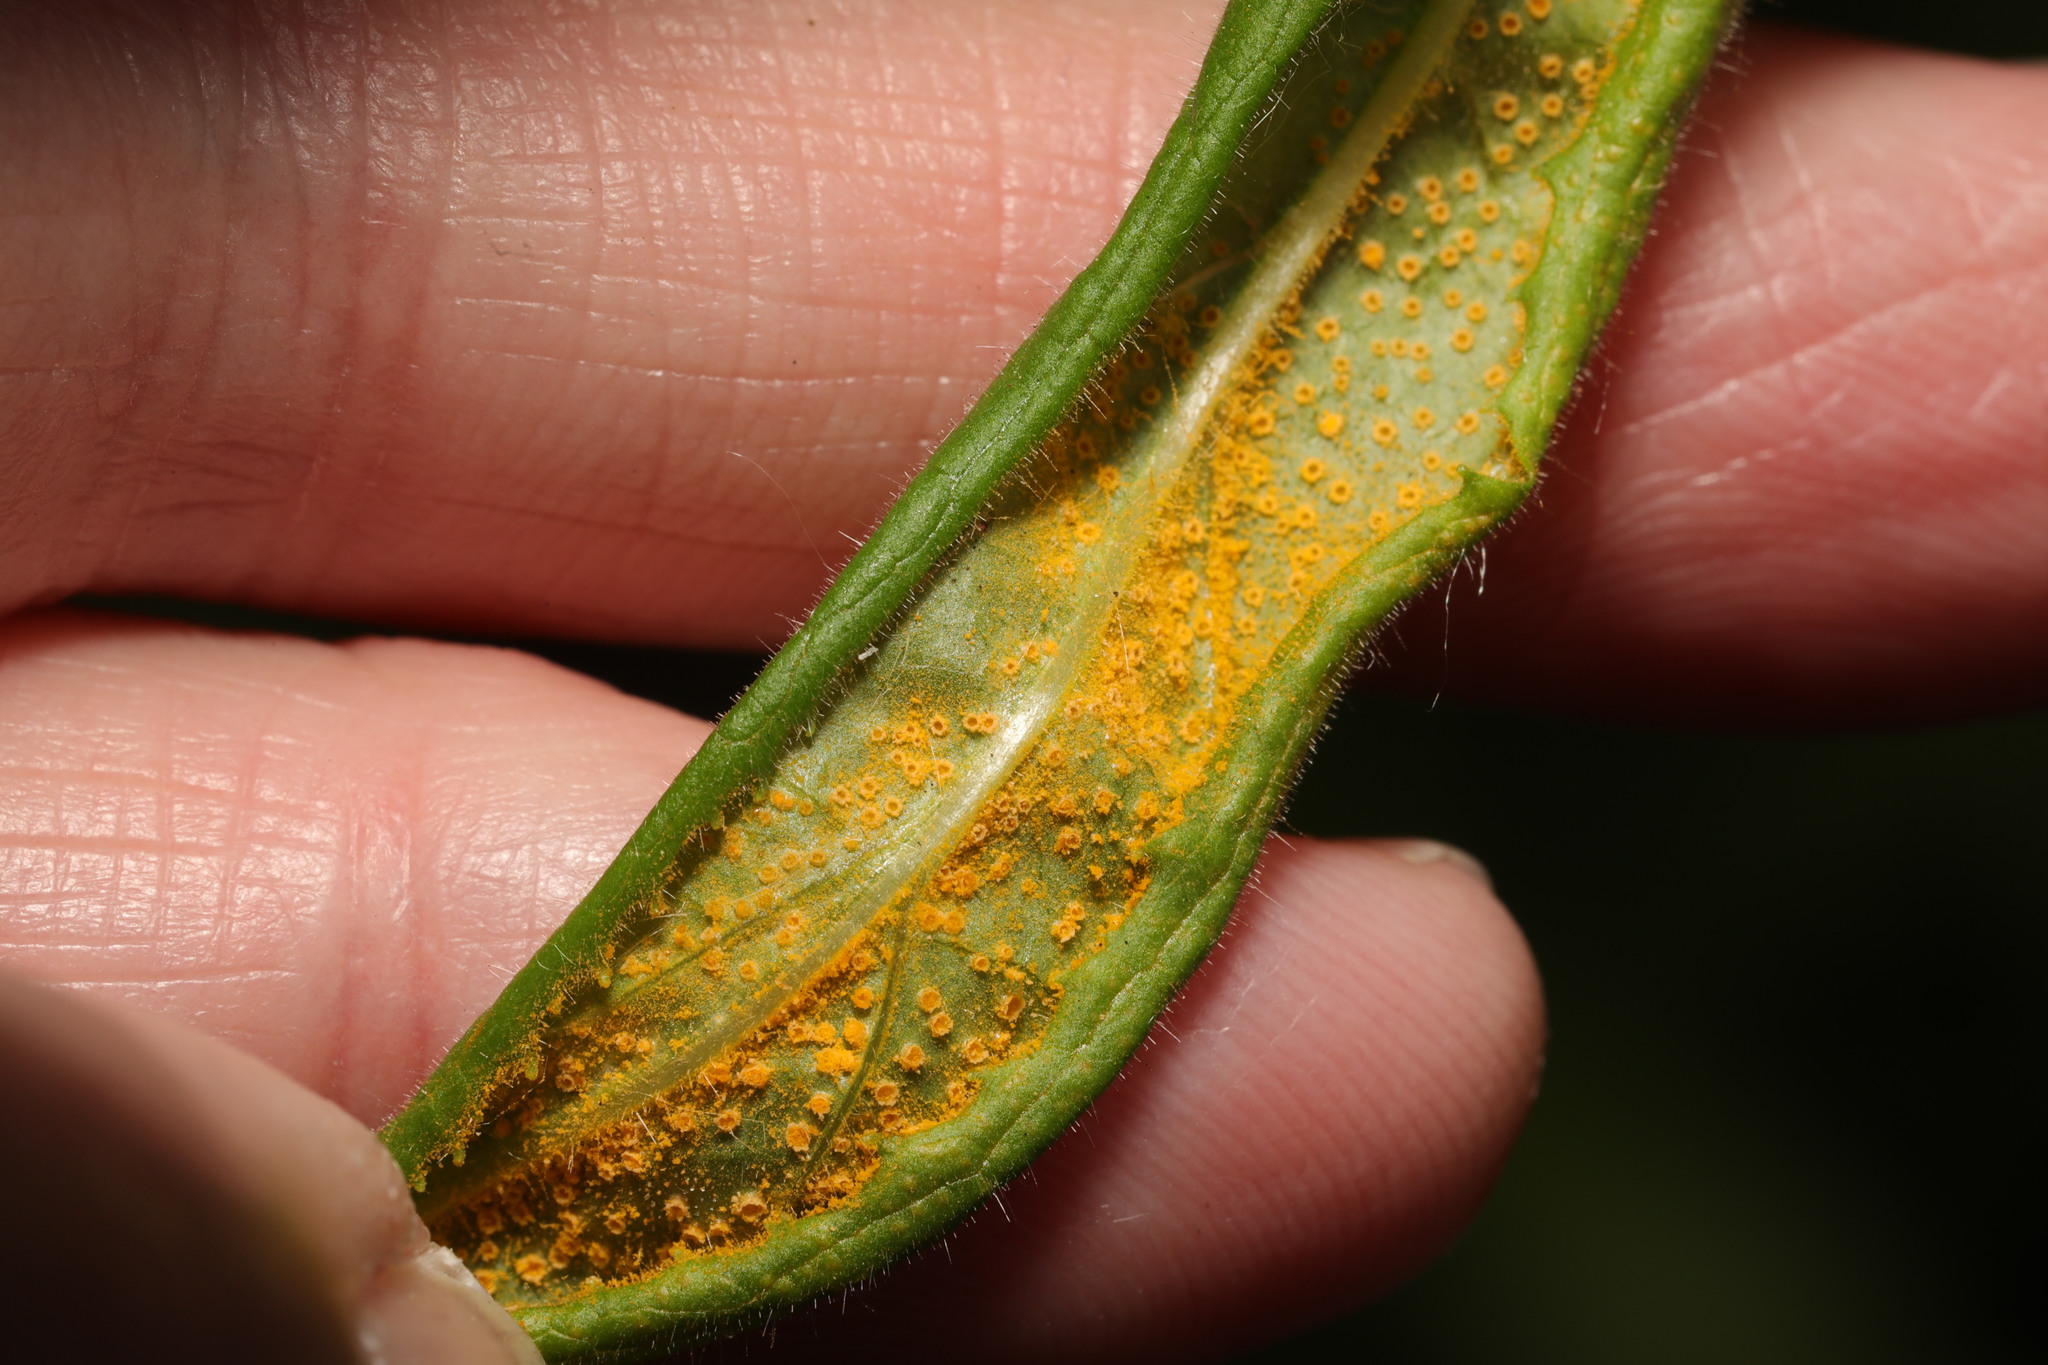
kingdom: Fungi
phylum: Basidiomycota
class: Pucciniomycetes
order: Pucciniales
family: Pucciniaceae
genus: Puccinia
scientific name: Puccinia pulverulenta
